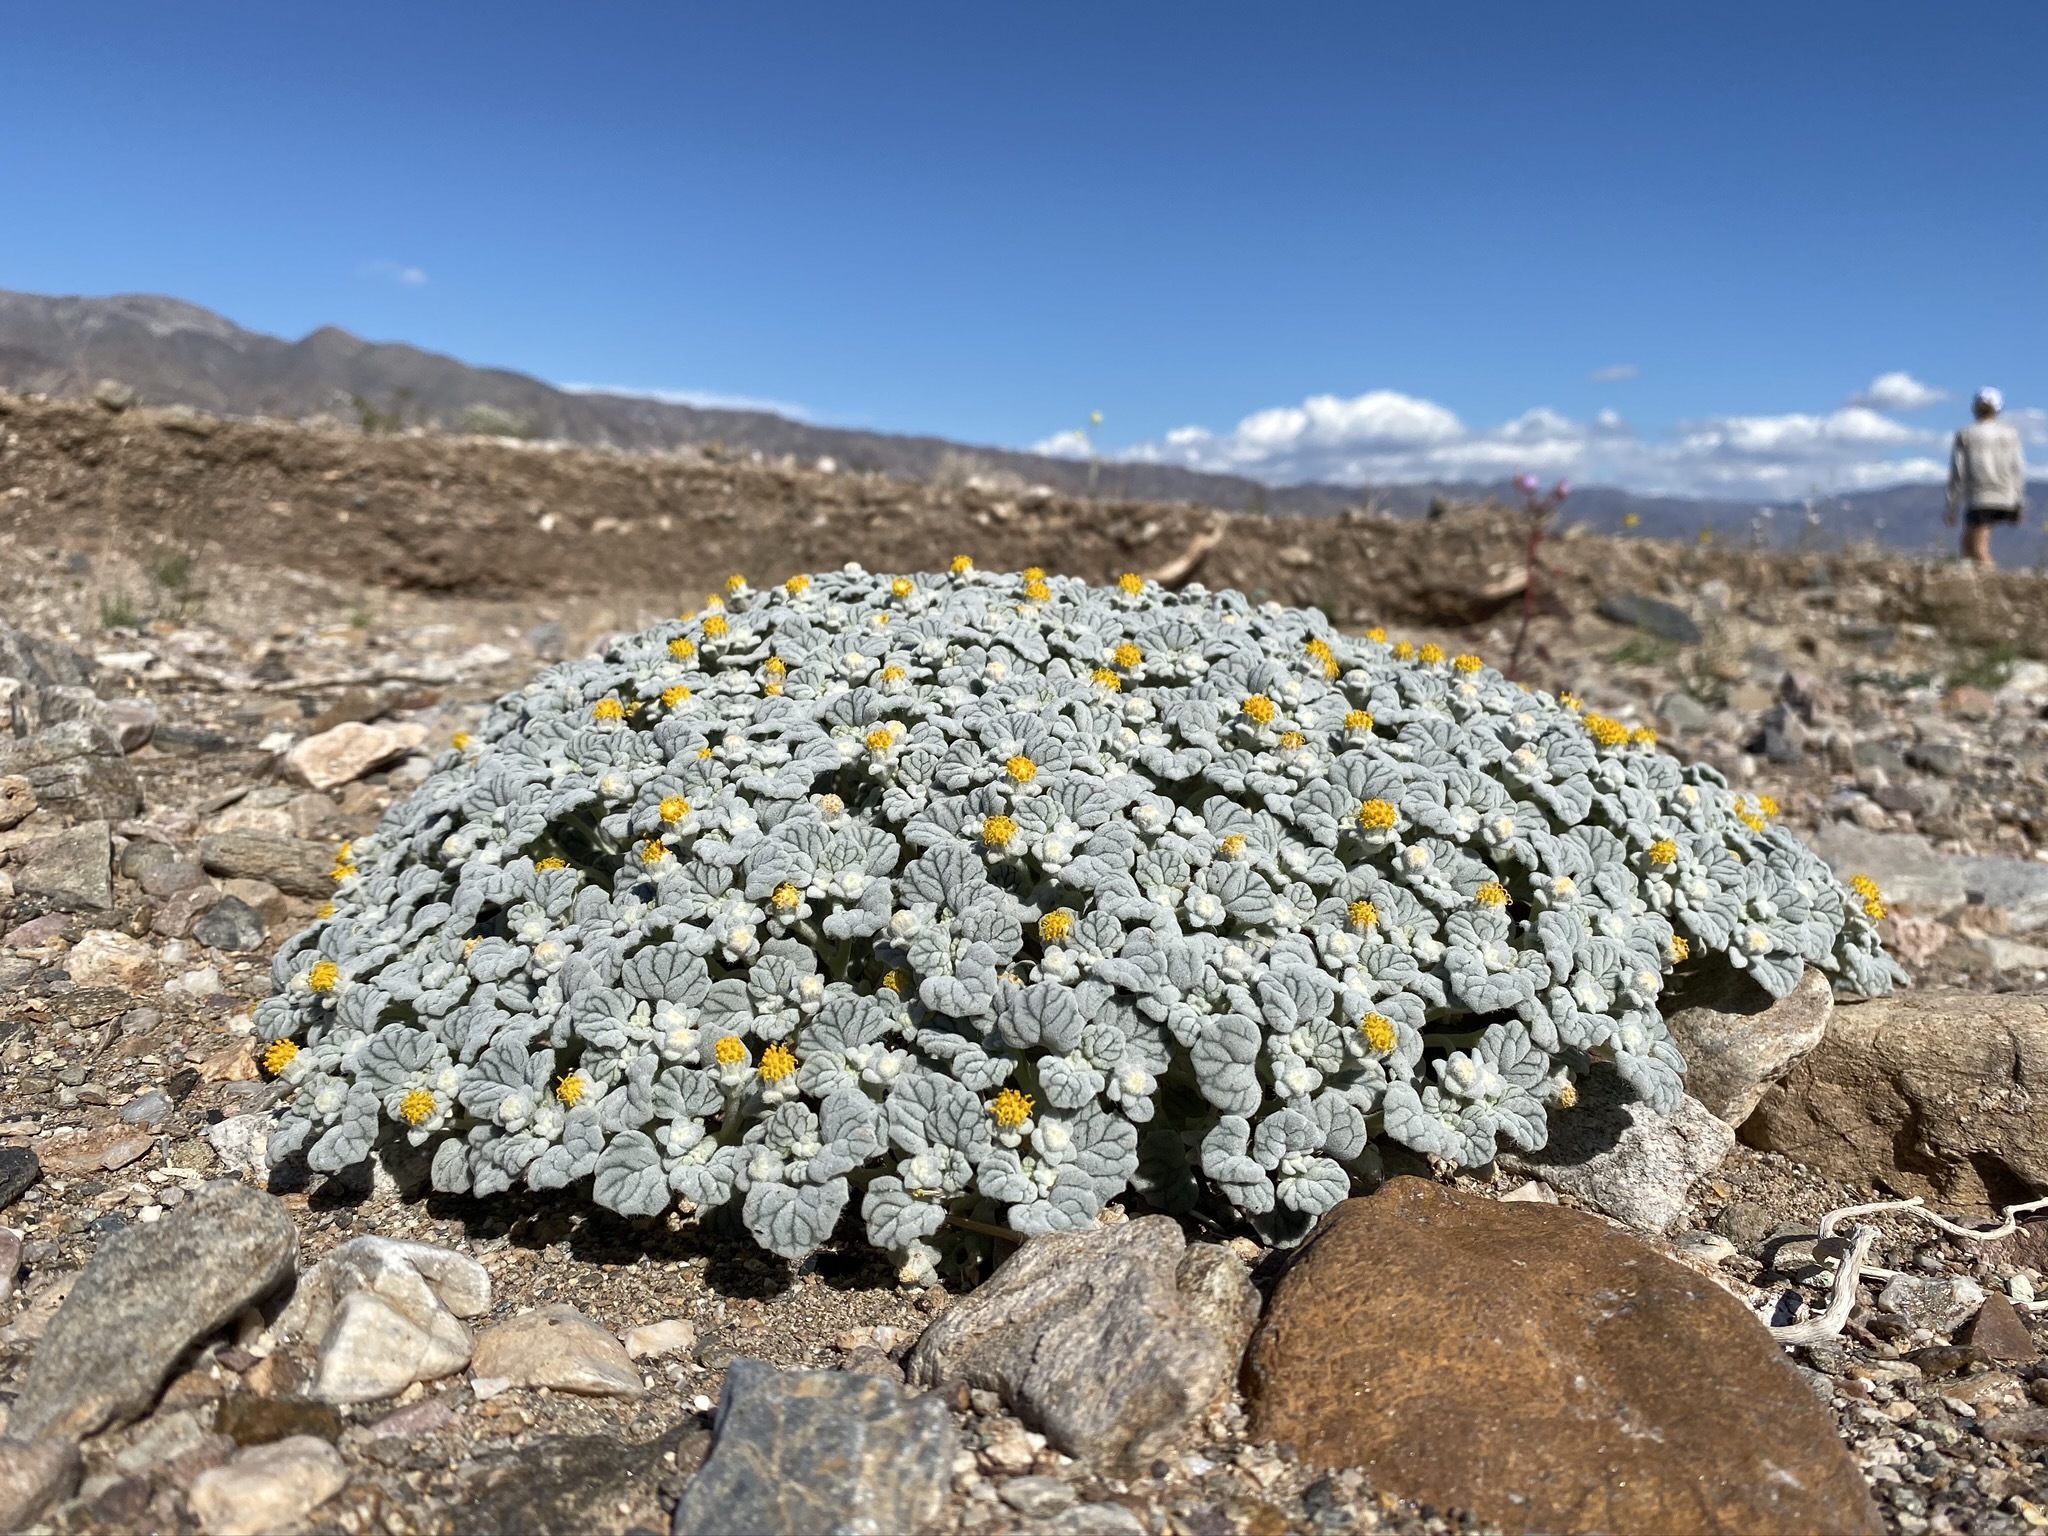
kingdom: Plantae
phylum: Tracheophyta
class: Magnoliopsida
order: Asterales
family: Asteraceae
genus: Psathyrotes
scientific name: Psathyrotes ramosissima
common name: Turtleback
